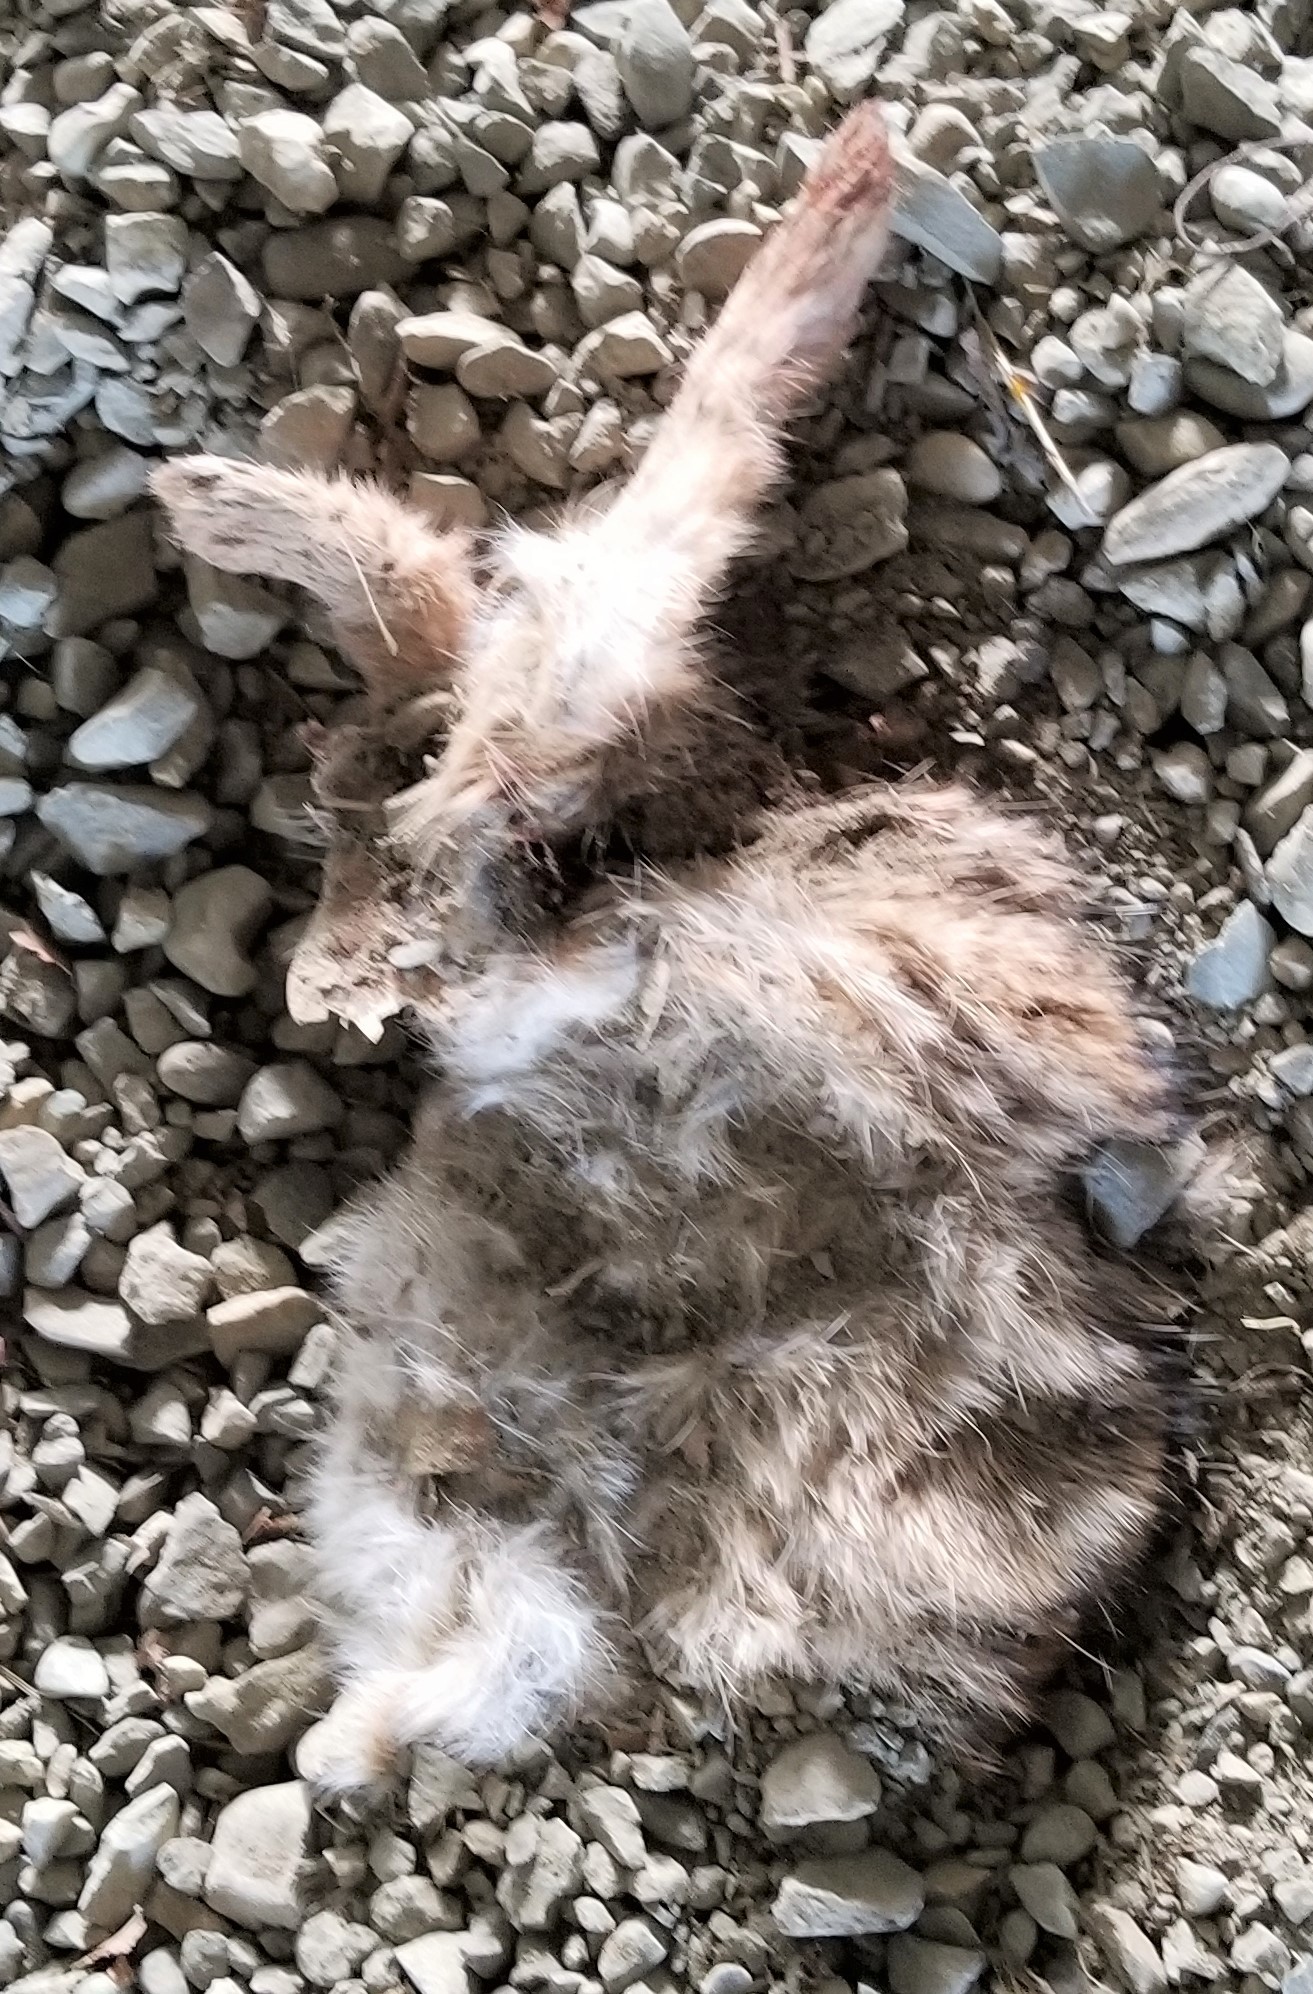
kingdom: Animalia
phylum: Chordata
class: Mammalia
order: Lagomorpha
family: Leporidae
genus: Sylvilagus
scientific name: Sylvilagus floridanus
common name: Eastern cottontail
